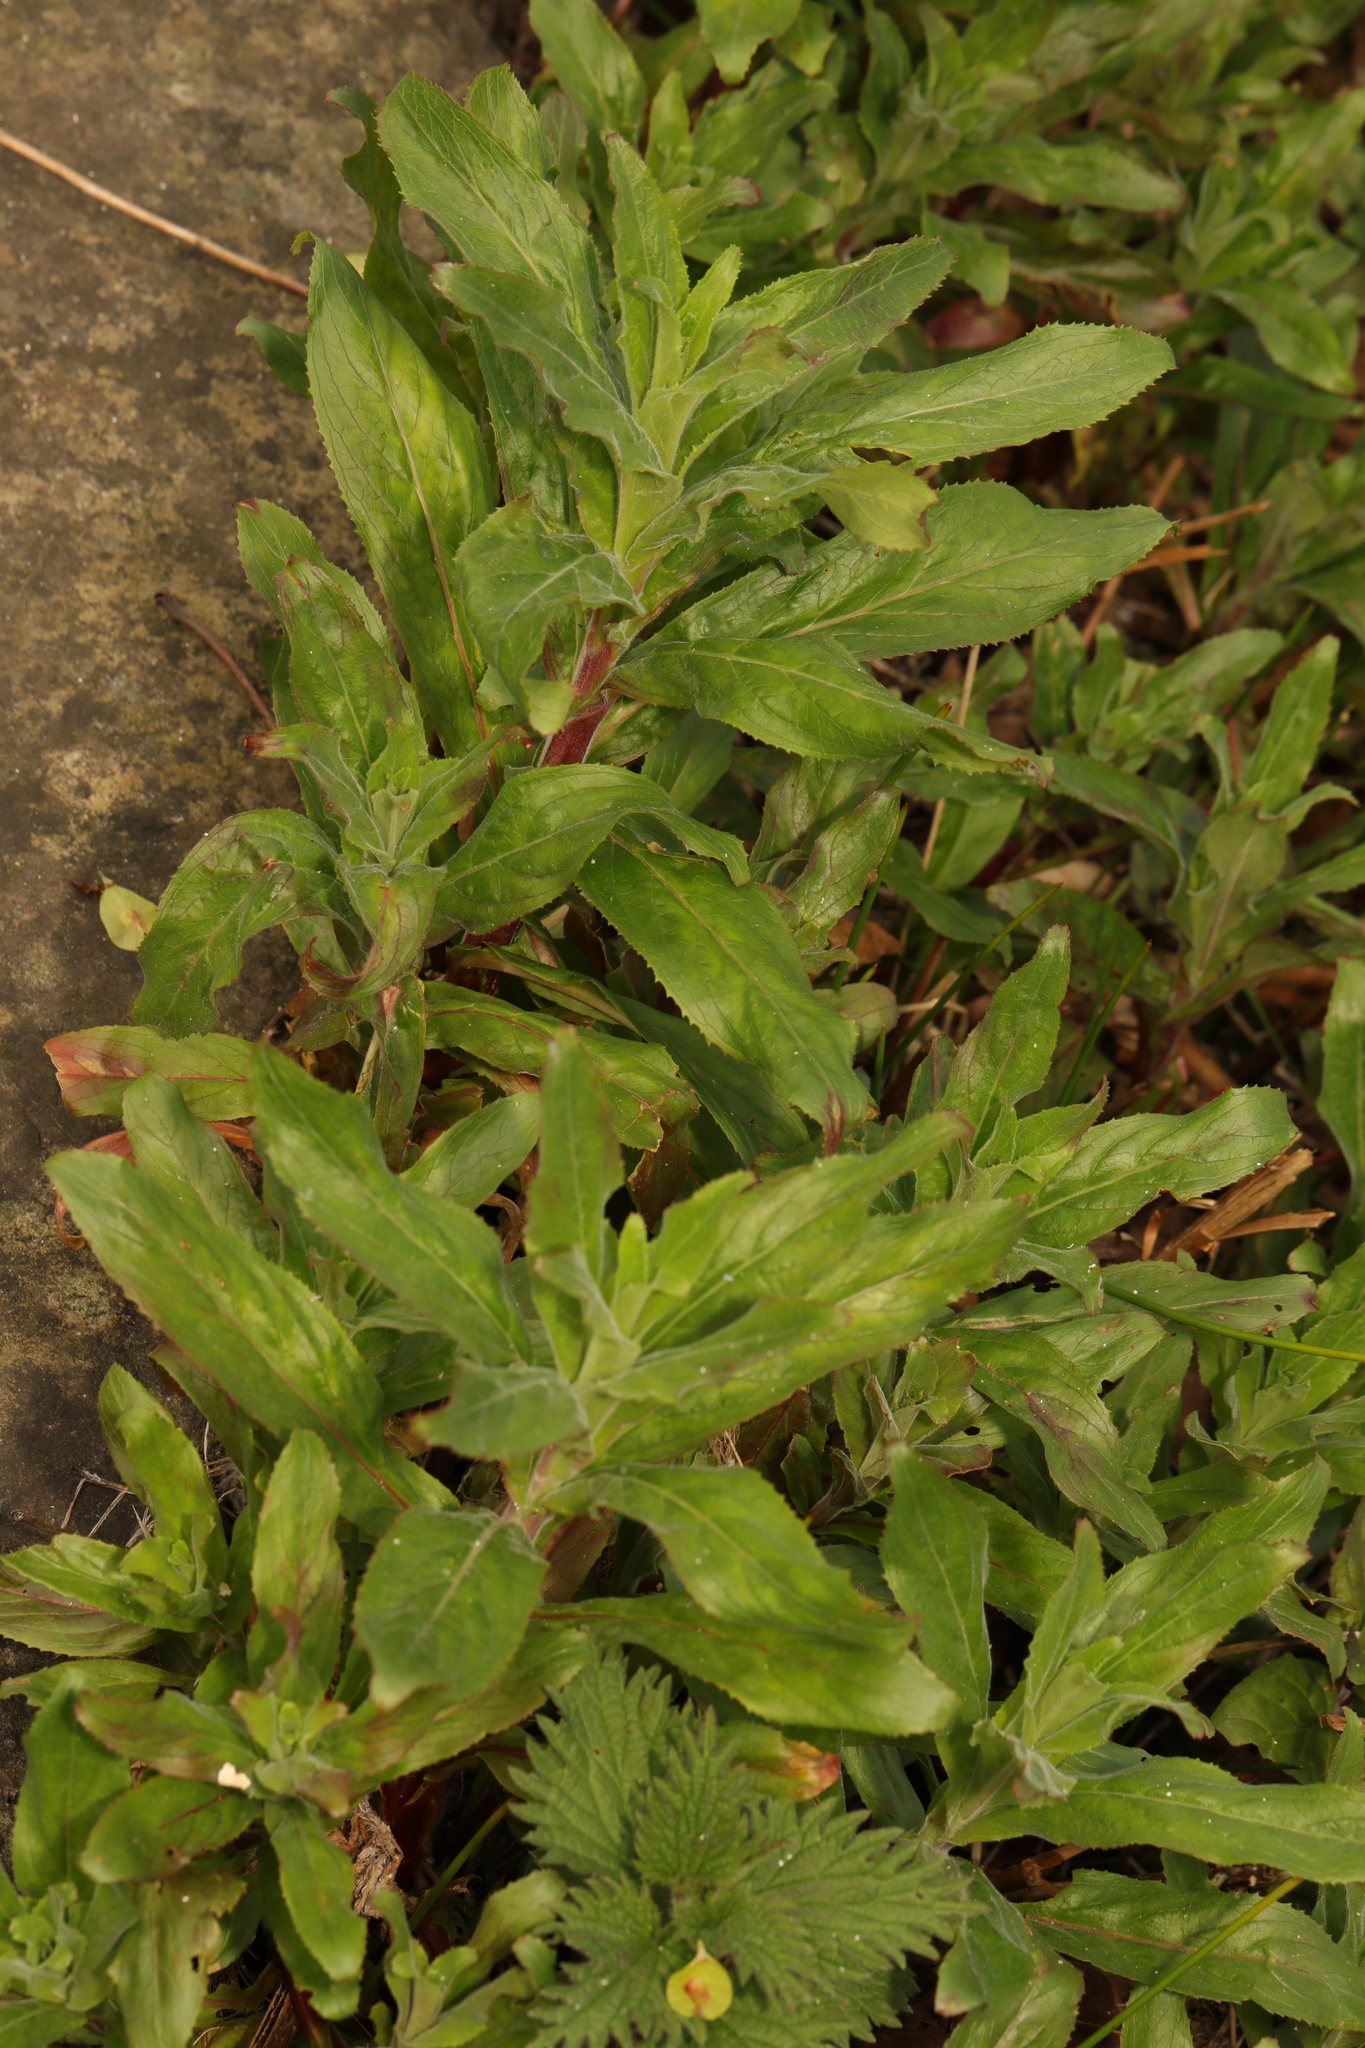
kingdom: Plantae
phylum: Tracheophyta
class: Magnoliopsida
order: Myrtales
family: Onagraceae
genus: Epilobium
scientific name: Epilobium hirsutum
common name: Great willowherb
